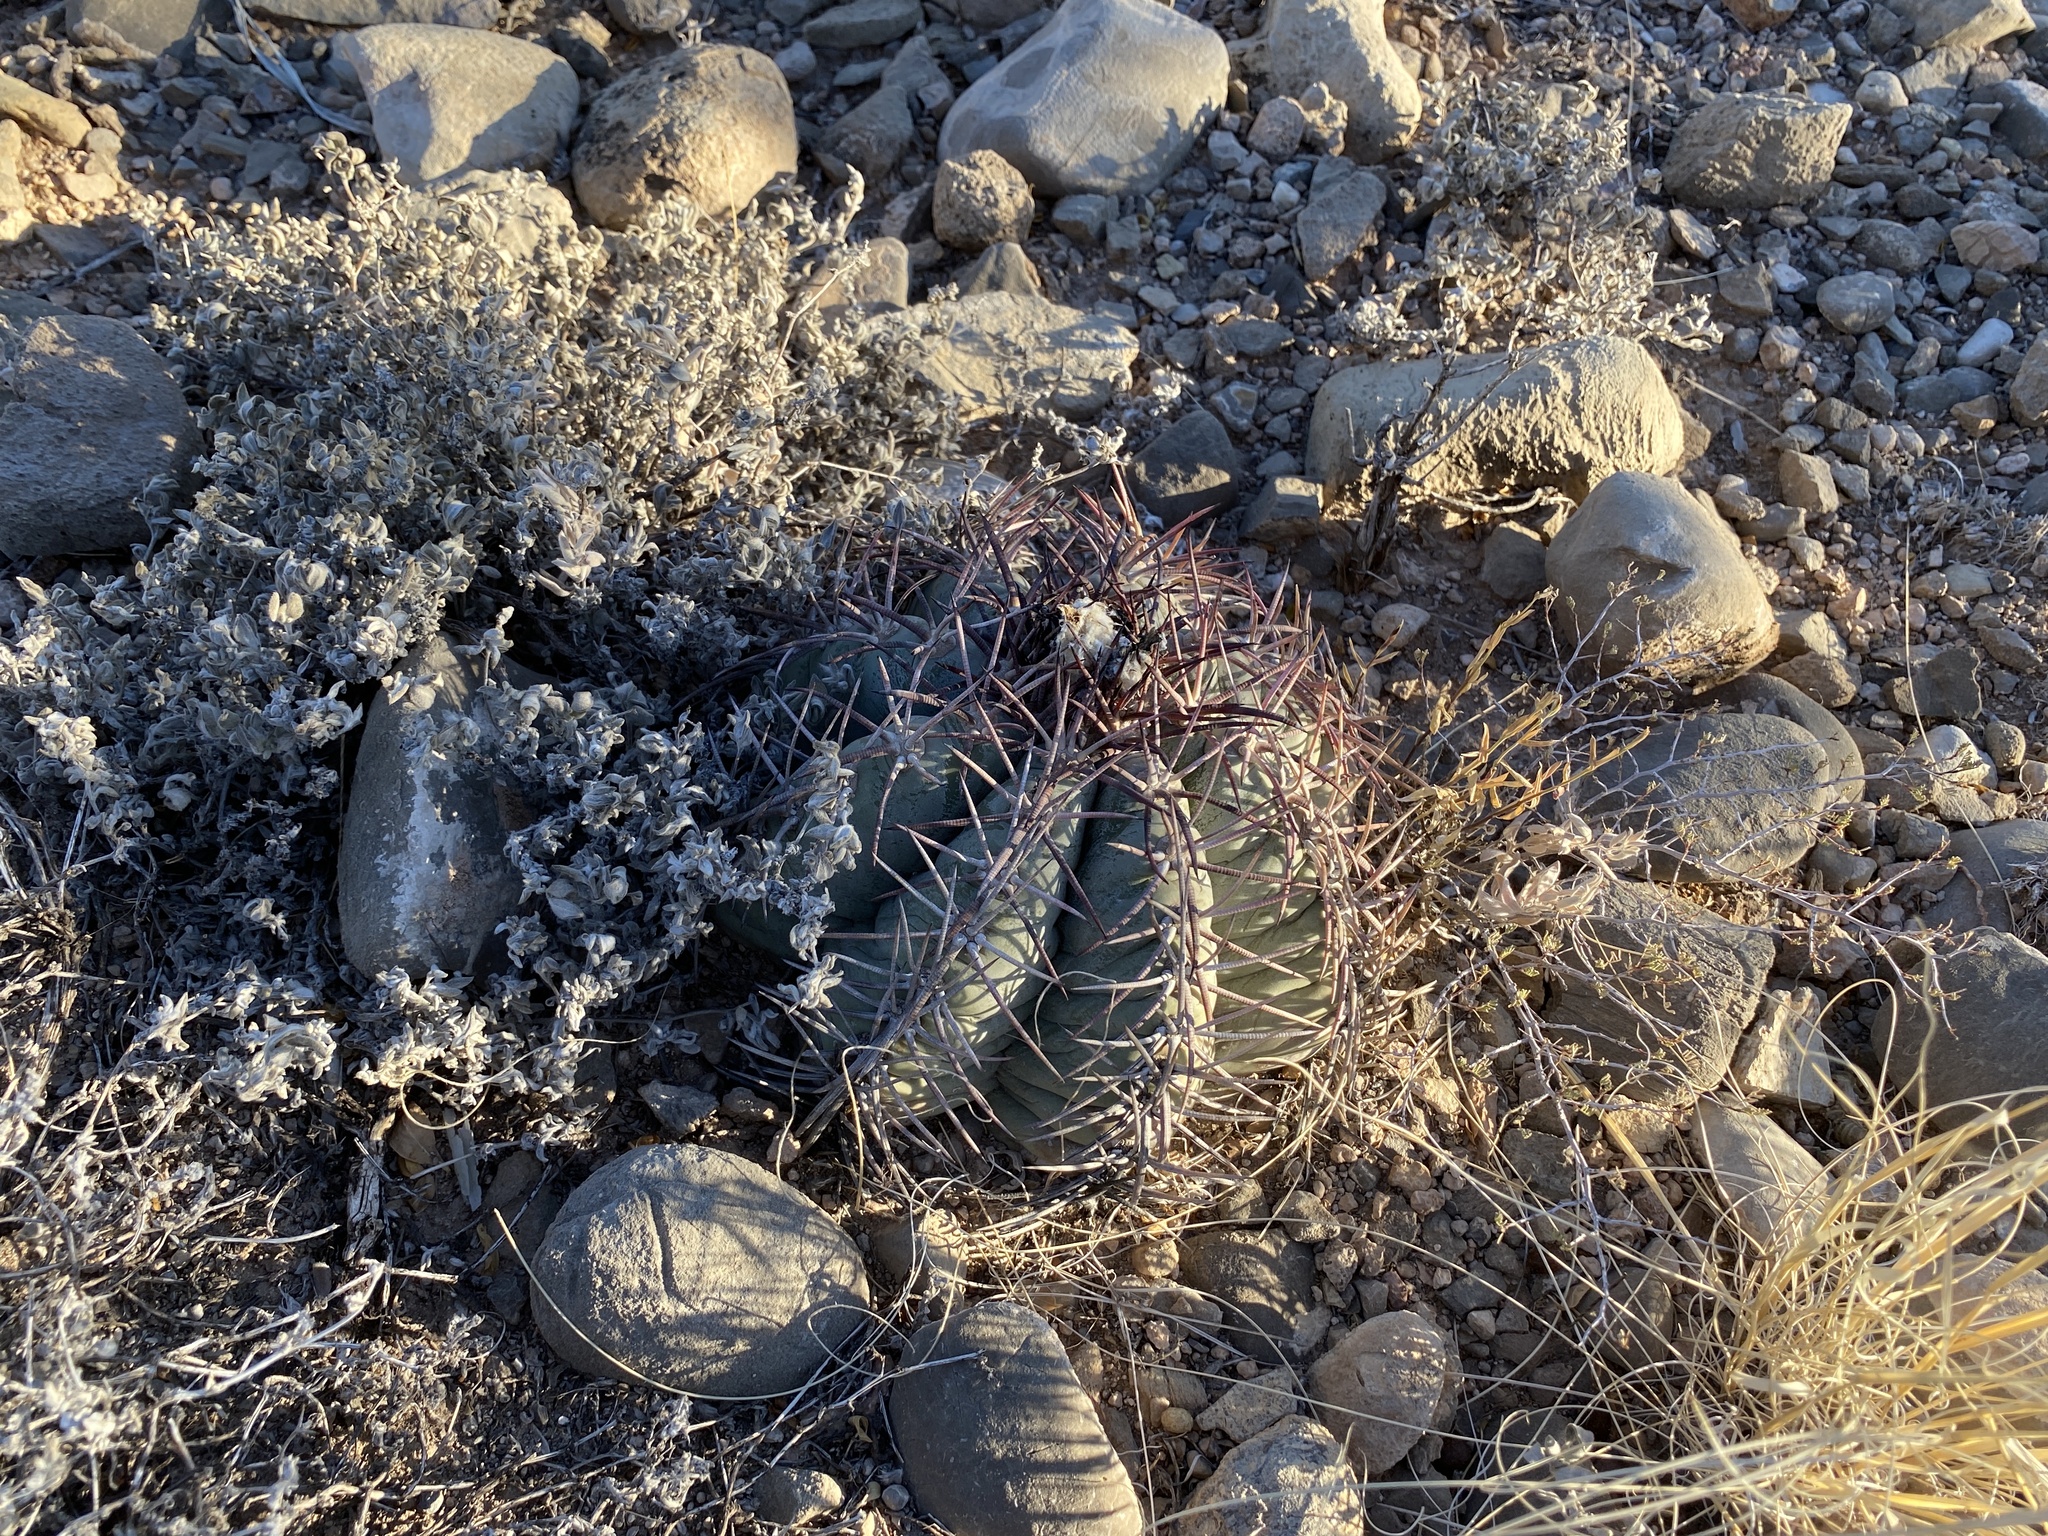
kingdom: Plantae
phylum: Tracheophyta
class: Magnoliopsida
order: Caryophyllales
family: Cactaceae
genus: Echinocactus
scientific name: Echinocactus horizonthalonius
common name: Devilshead
